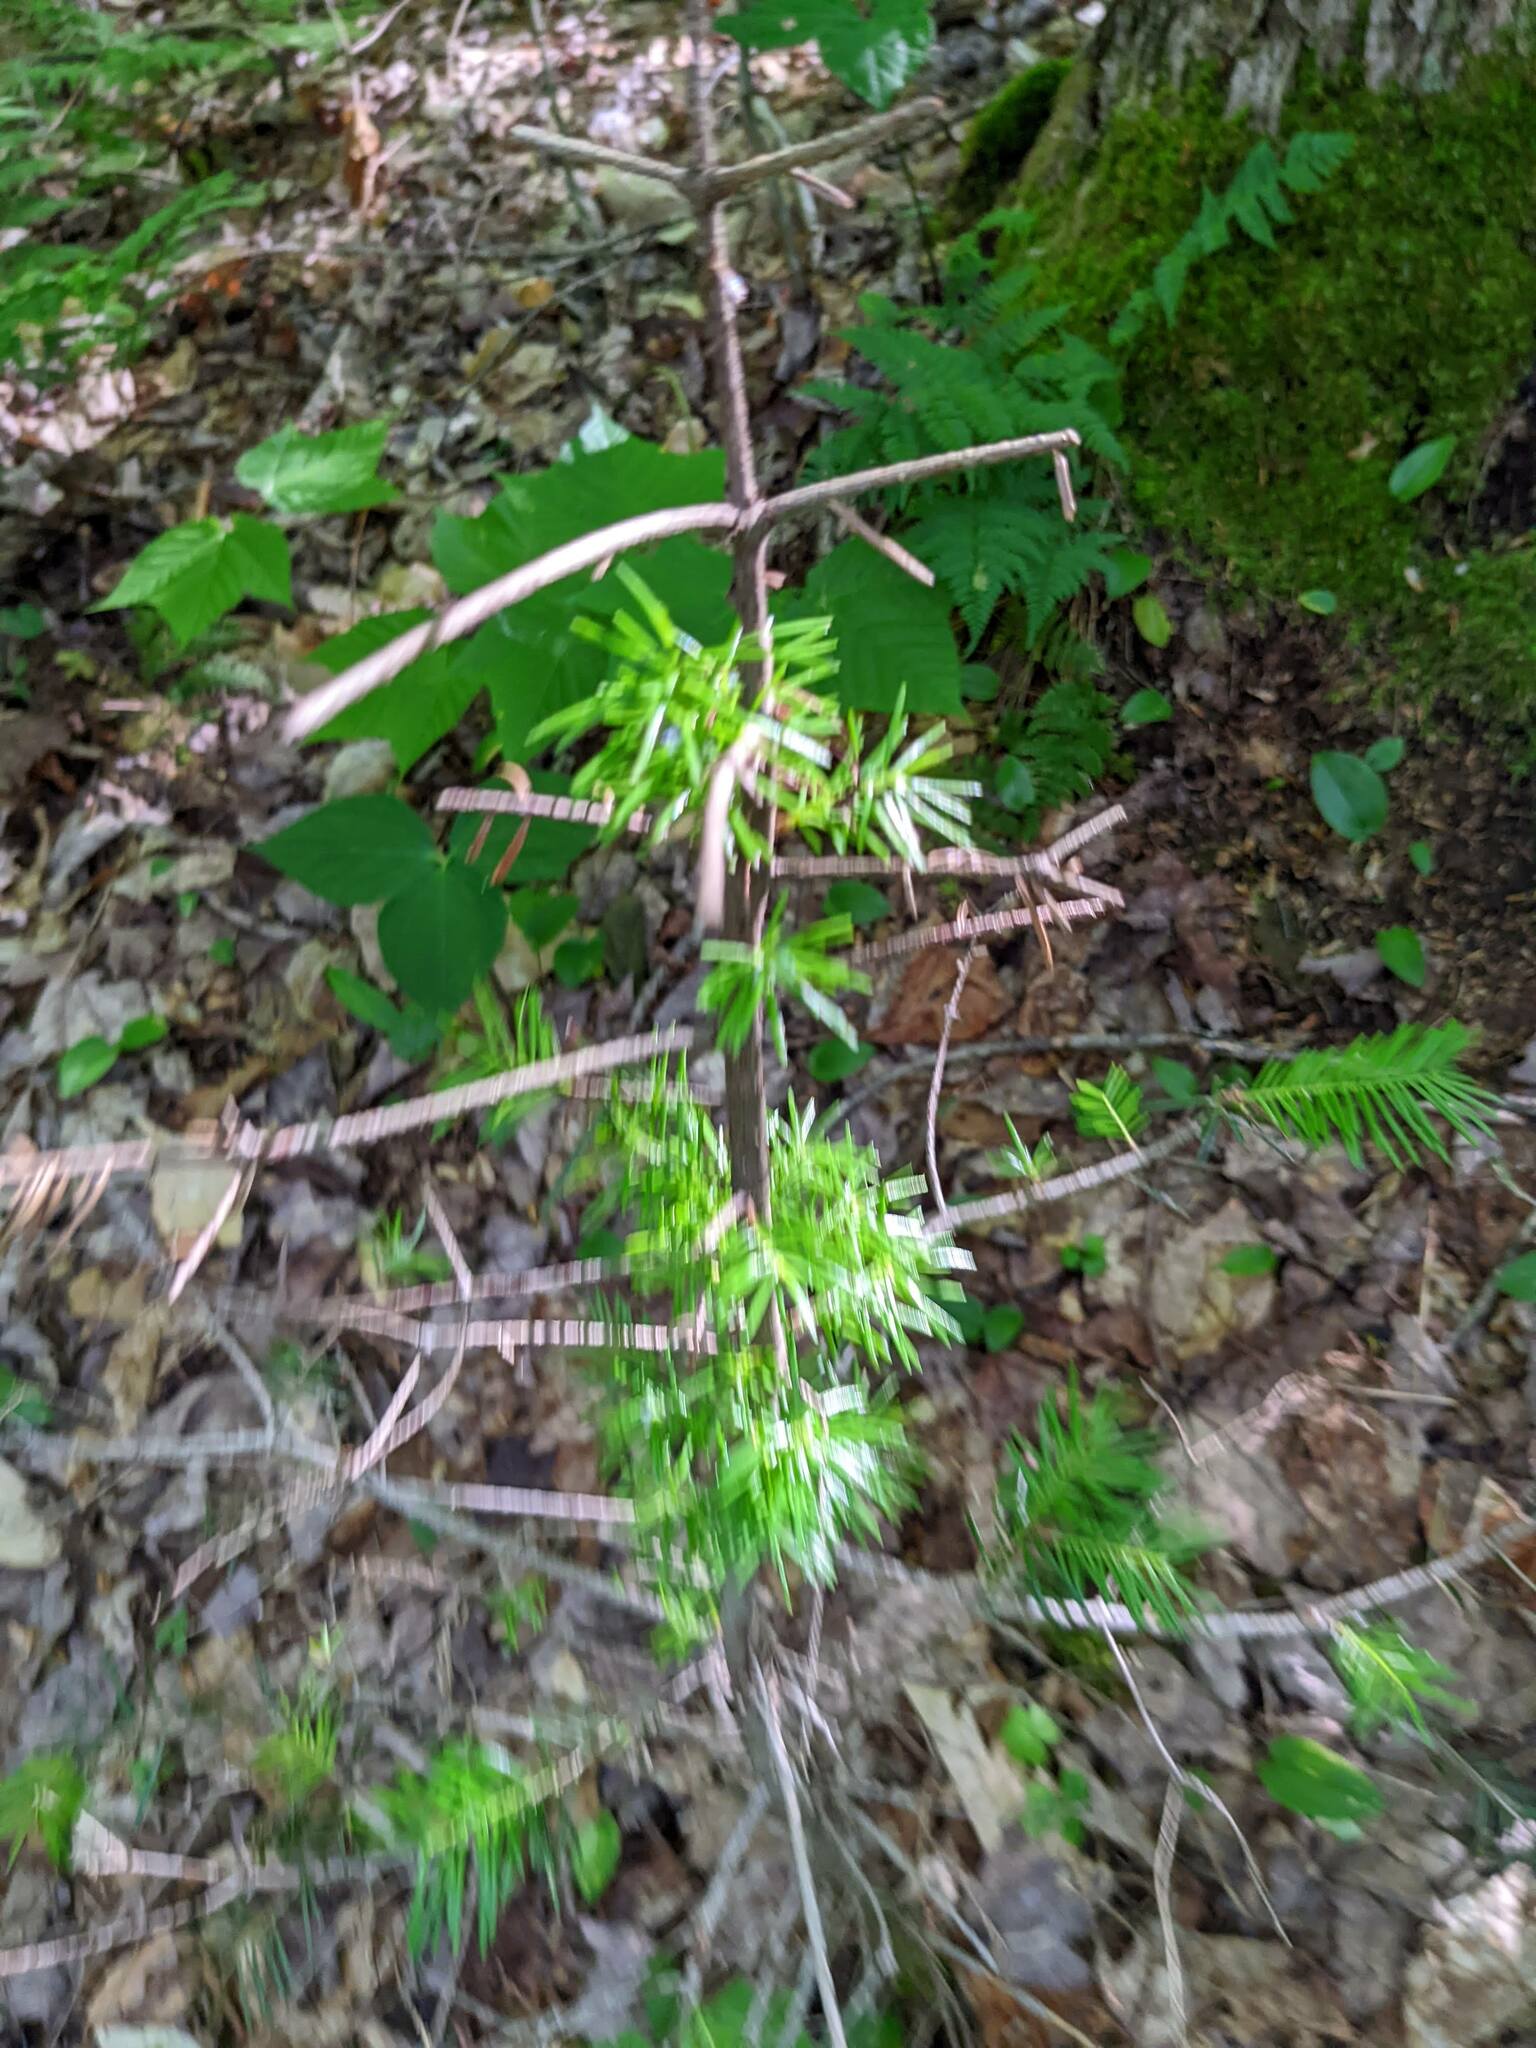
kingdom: Plantae
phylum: Tracheophyta
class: Pinopsida
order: Pinales
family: Pinaceae
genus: Tsuga
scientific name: Tsuga canadensis
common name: Eastern hemlock
